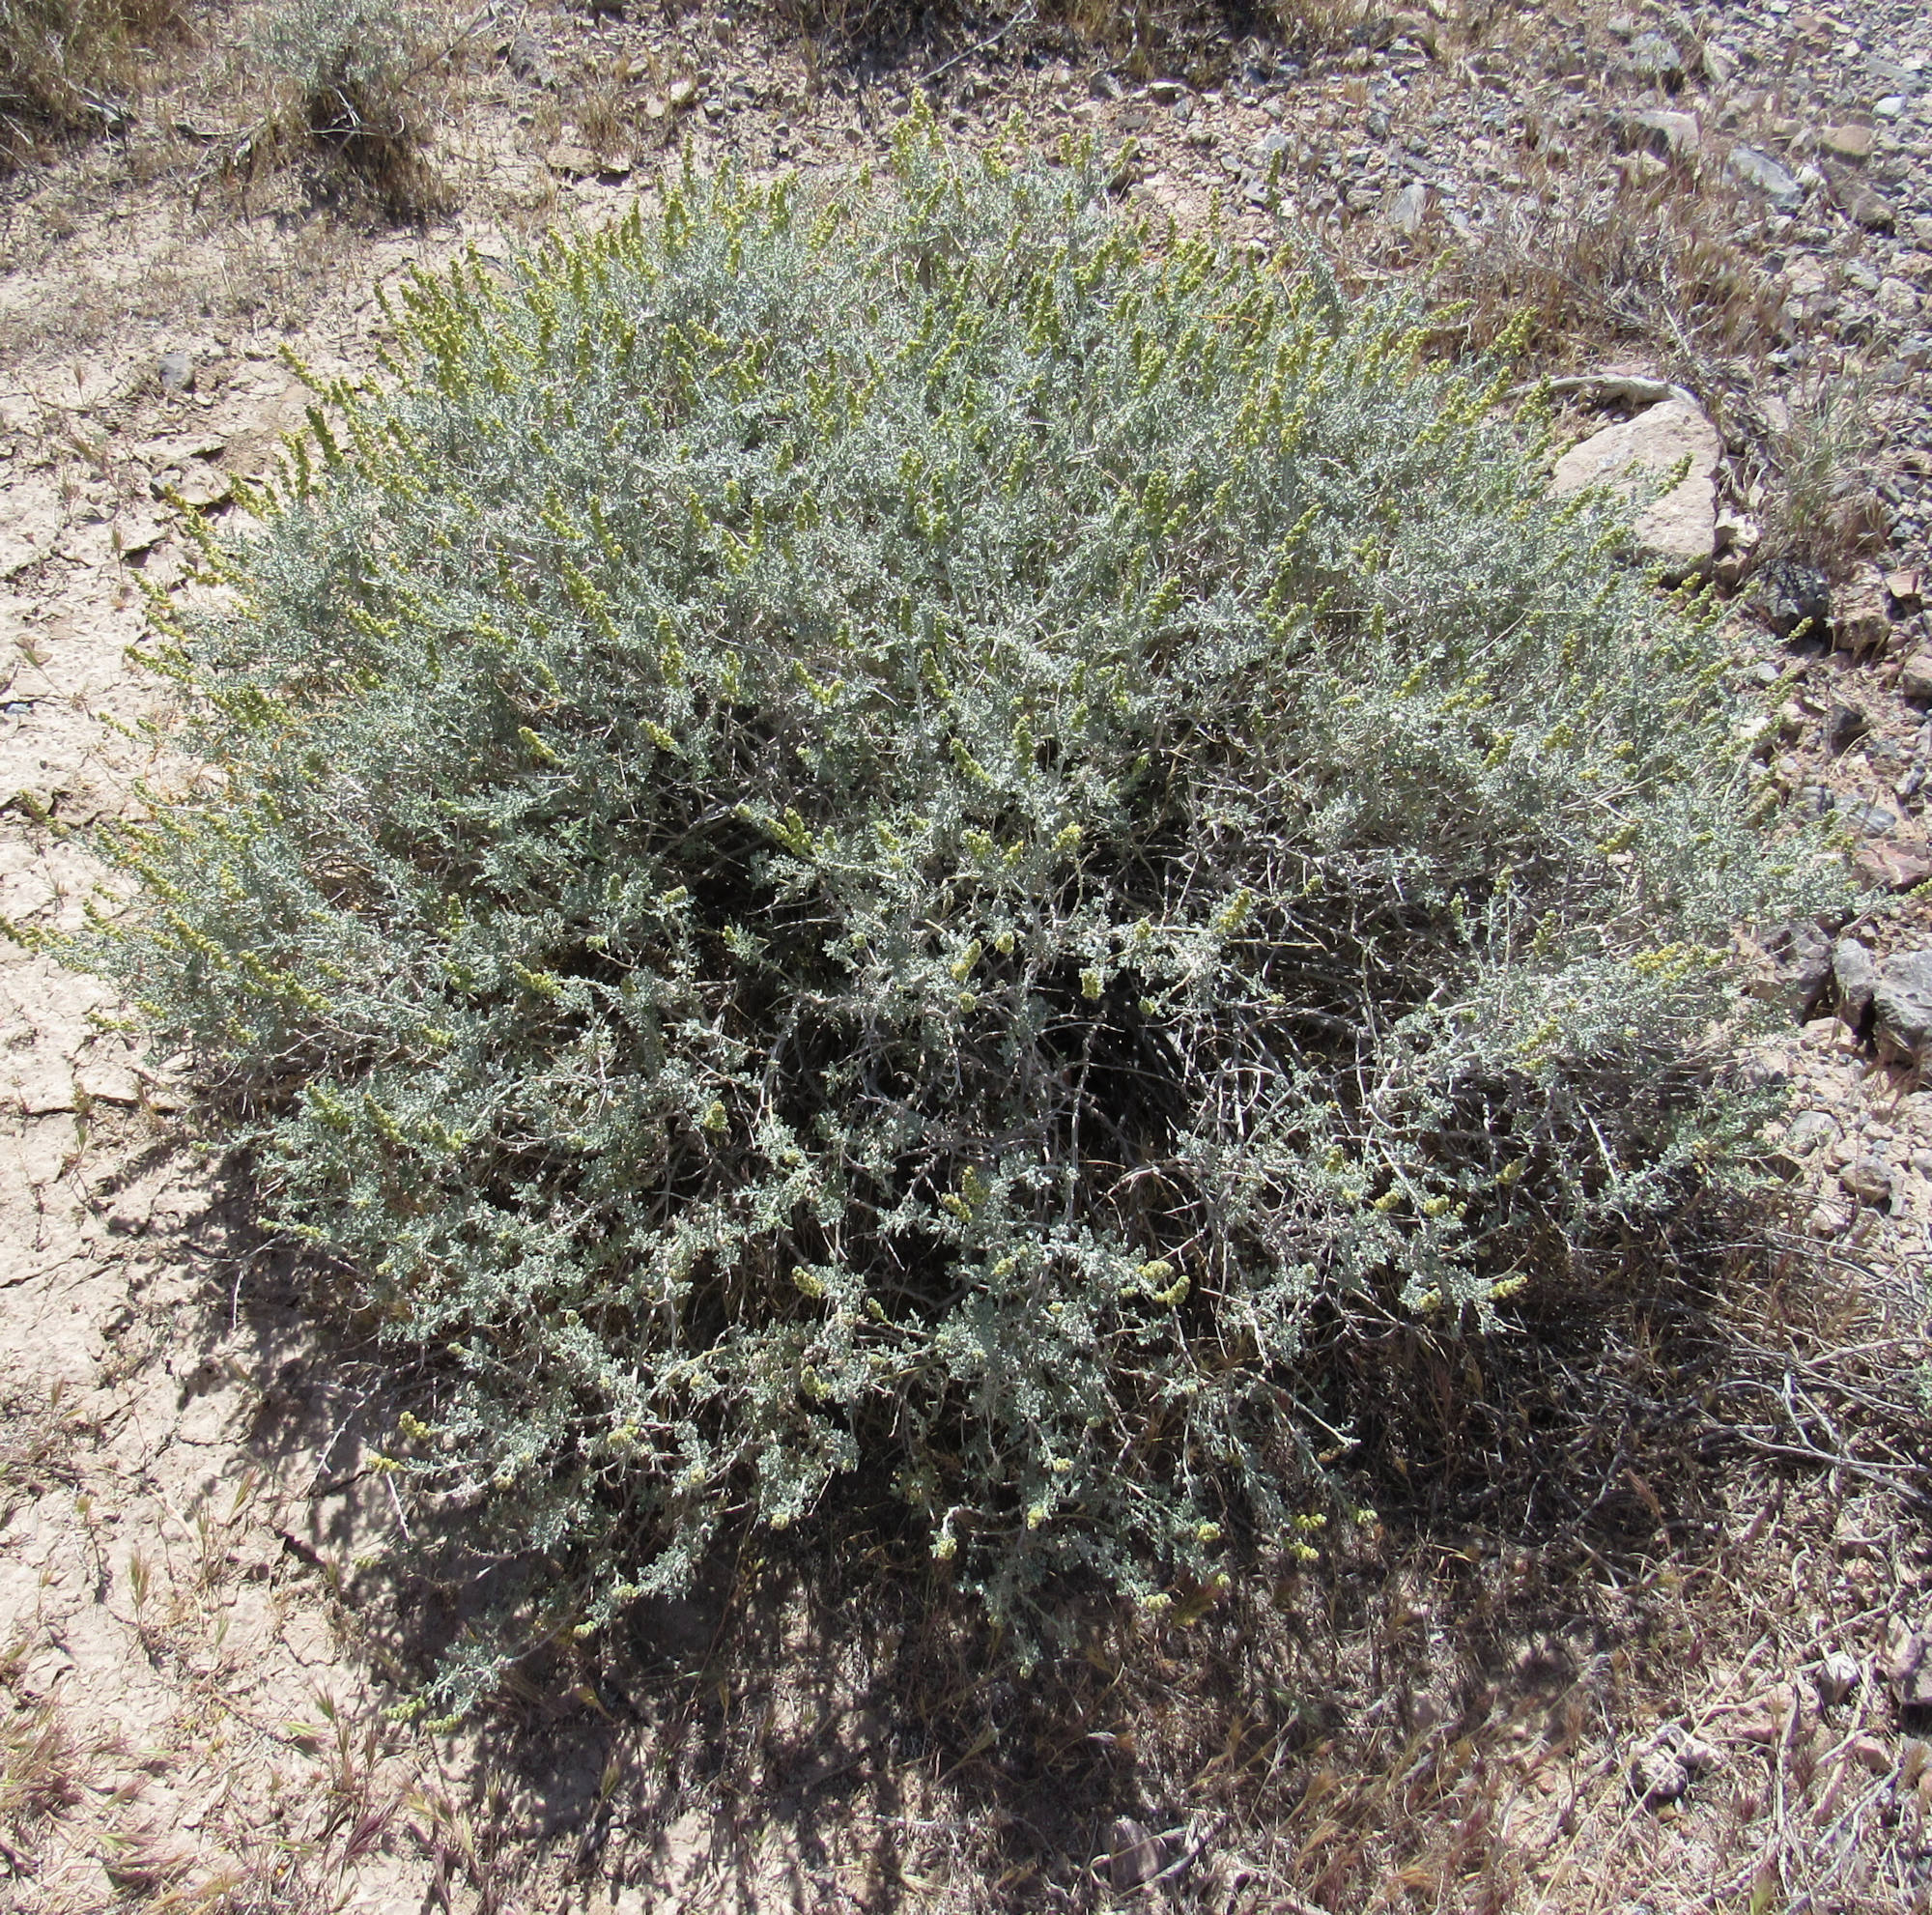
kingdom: Plantae
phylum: Tracheophyta
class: Magnoliopsida
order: Asterales
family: Asteraceae
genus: Ambrosia
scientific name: Ambrosia dumosa
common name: Bur-sage
